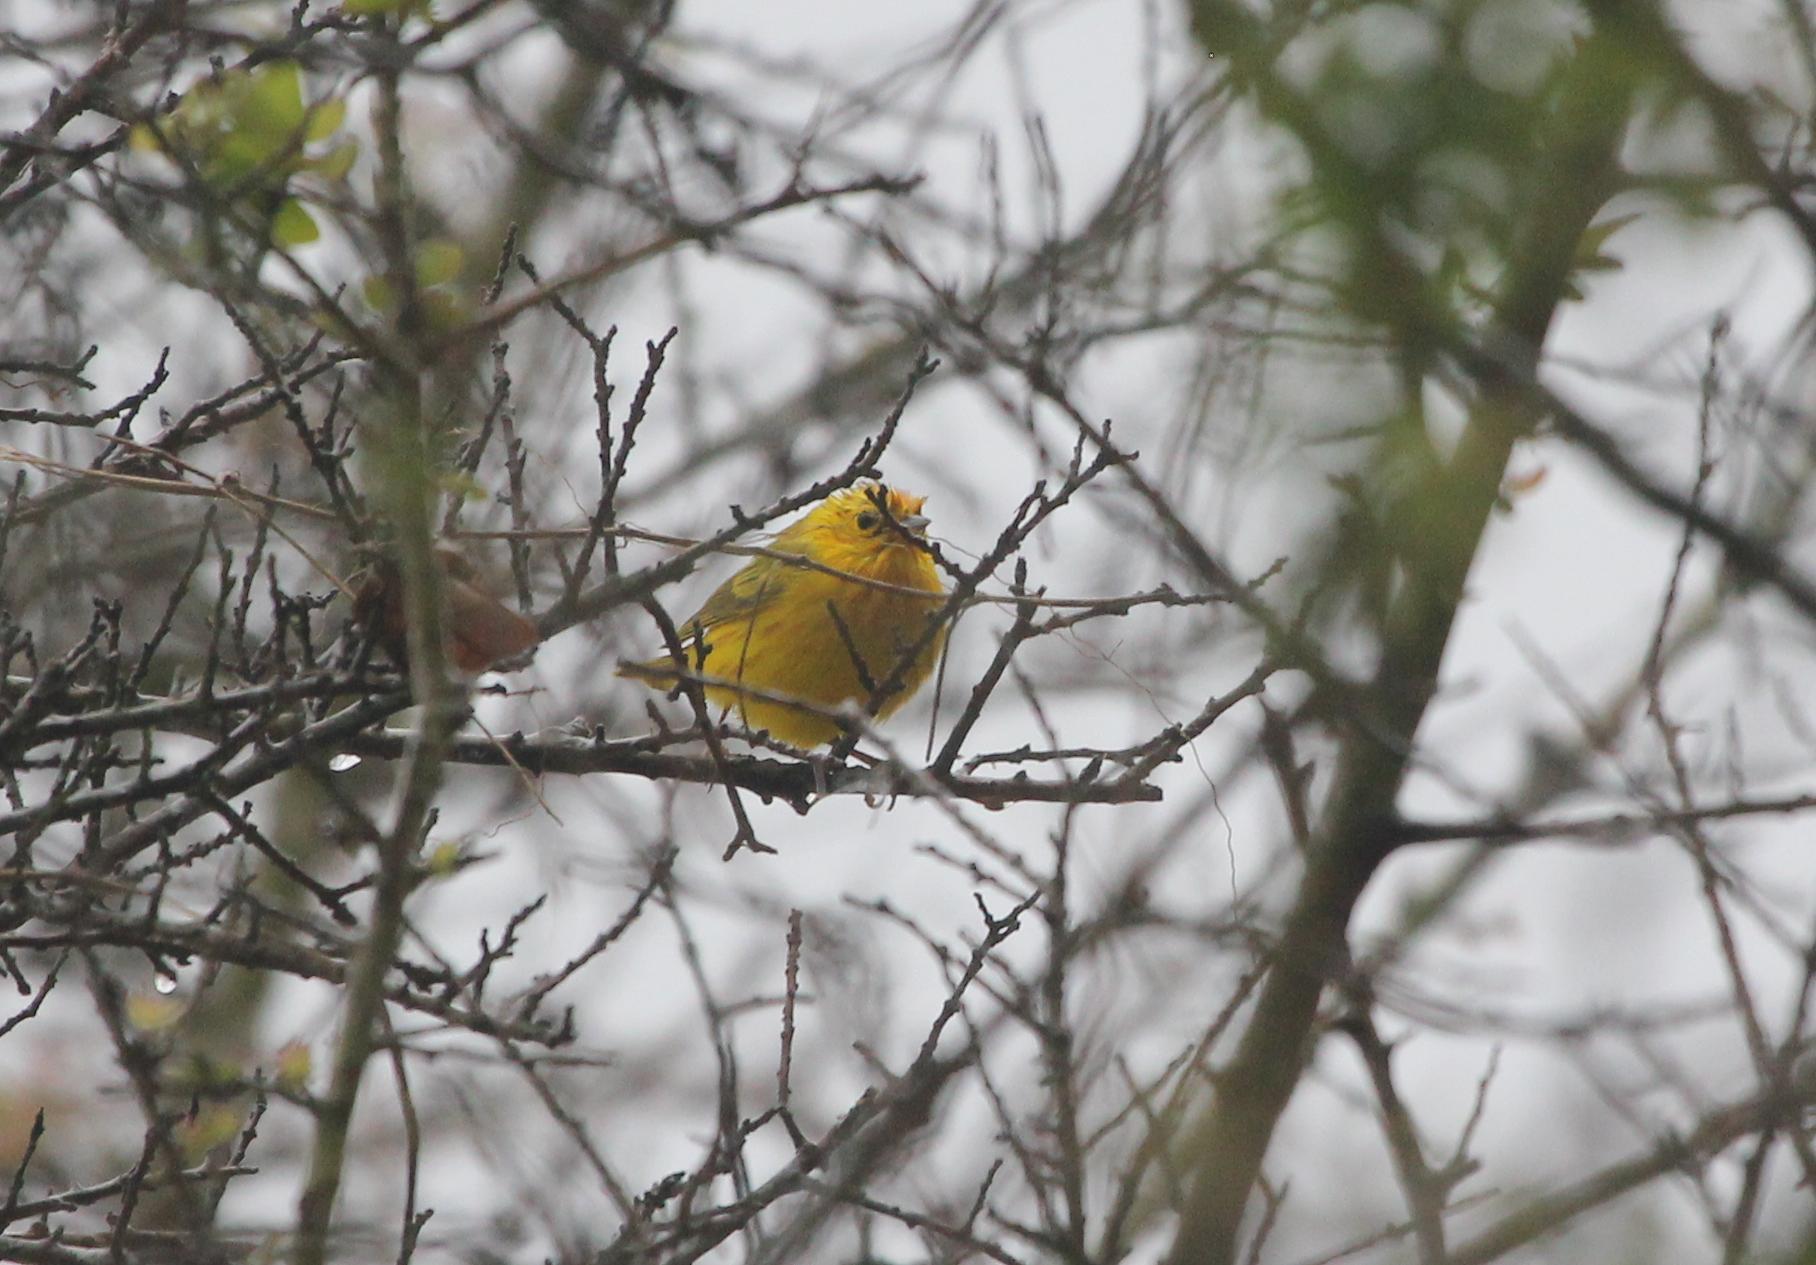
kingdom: Animalia
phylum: Chordata
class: Aves
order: Passeriformes
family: Parulidae
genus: Setophaga
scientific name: Setophaga petechia
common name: Yellow warbler
